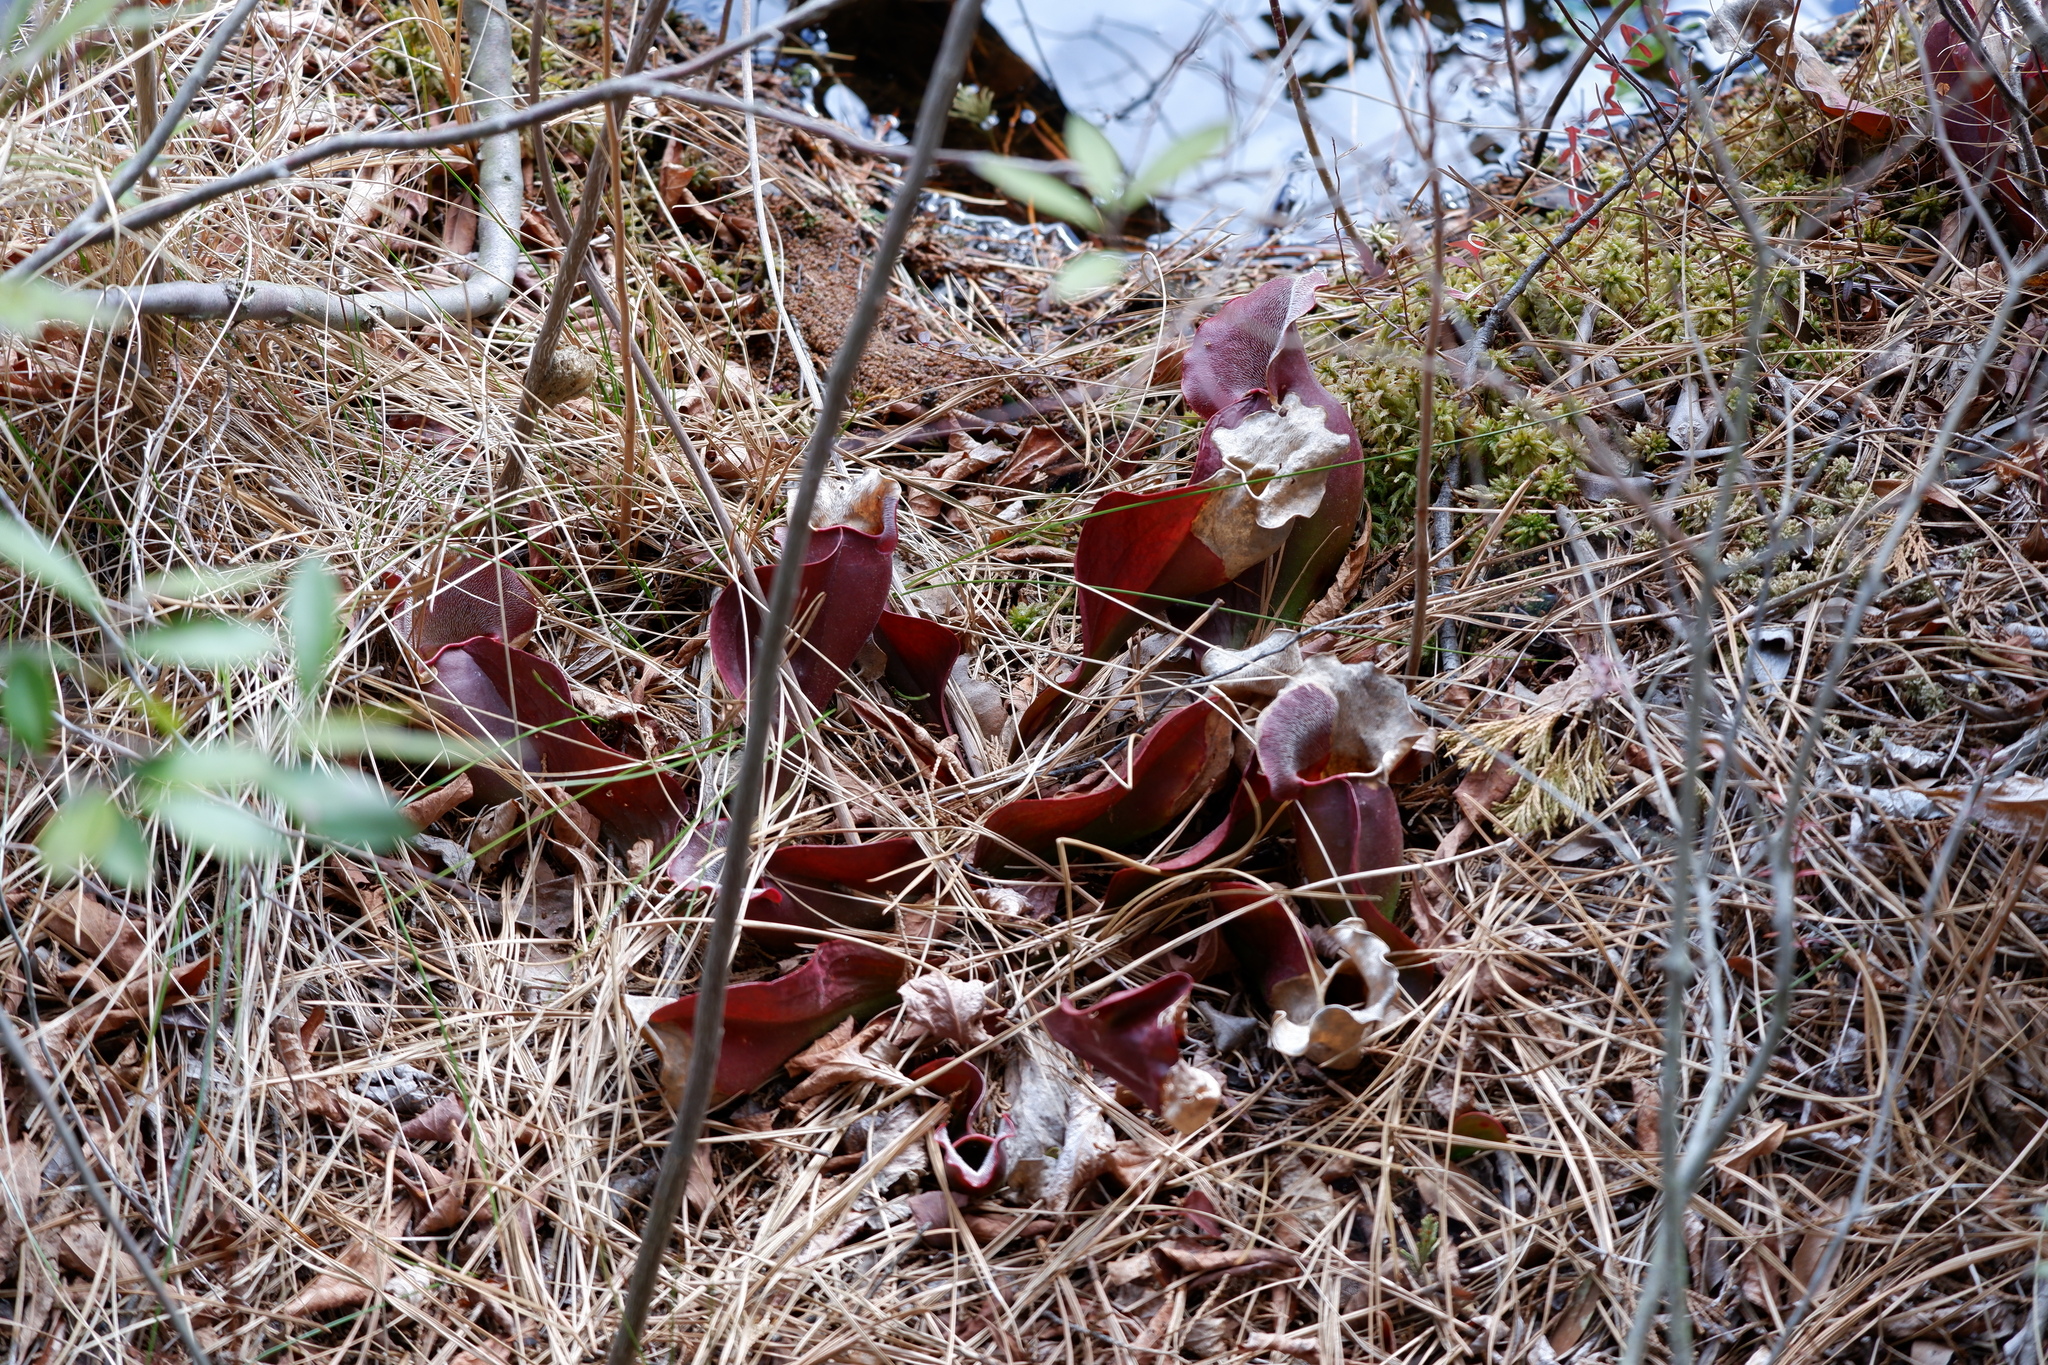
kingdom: Plantae
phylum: Tracheophyta
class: Magnoliopsida
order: Ericales
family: Sarraceniaceae
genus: Sarracenia
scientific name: Sarracenia purpurea
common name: Pitcherplant
